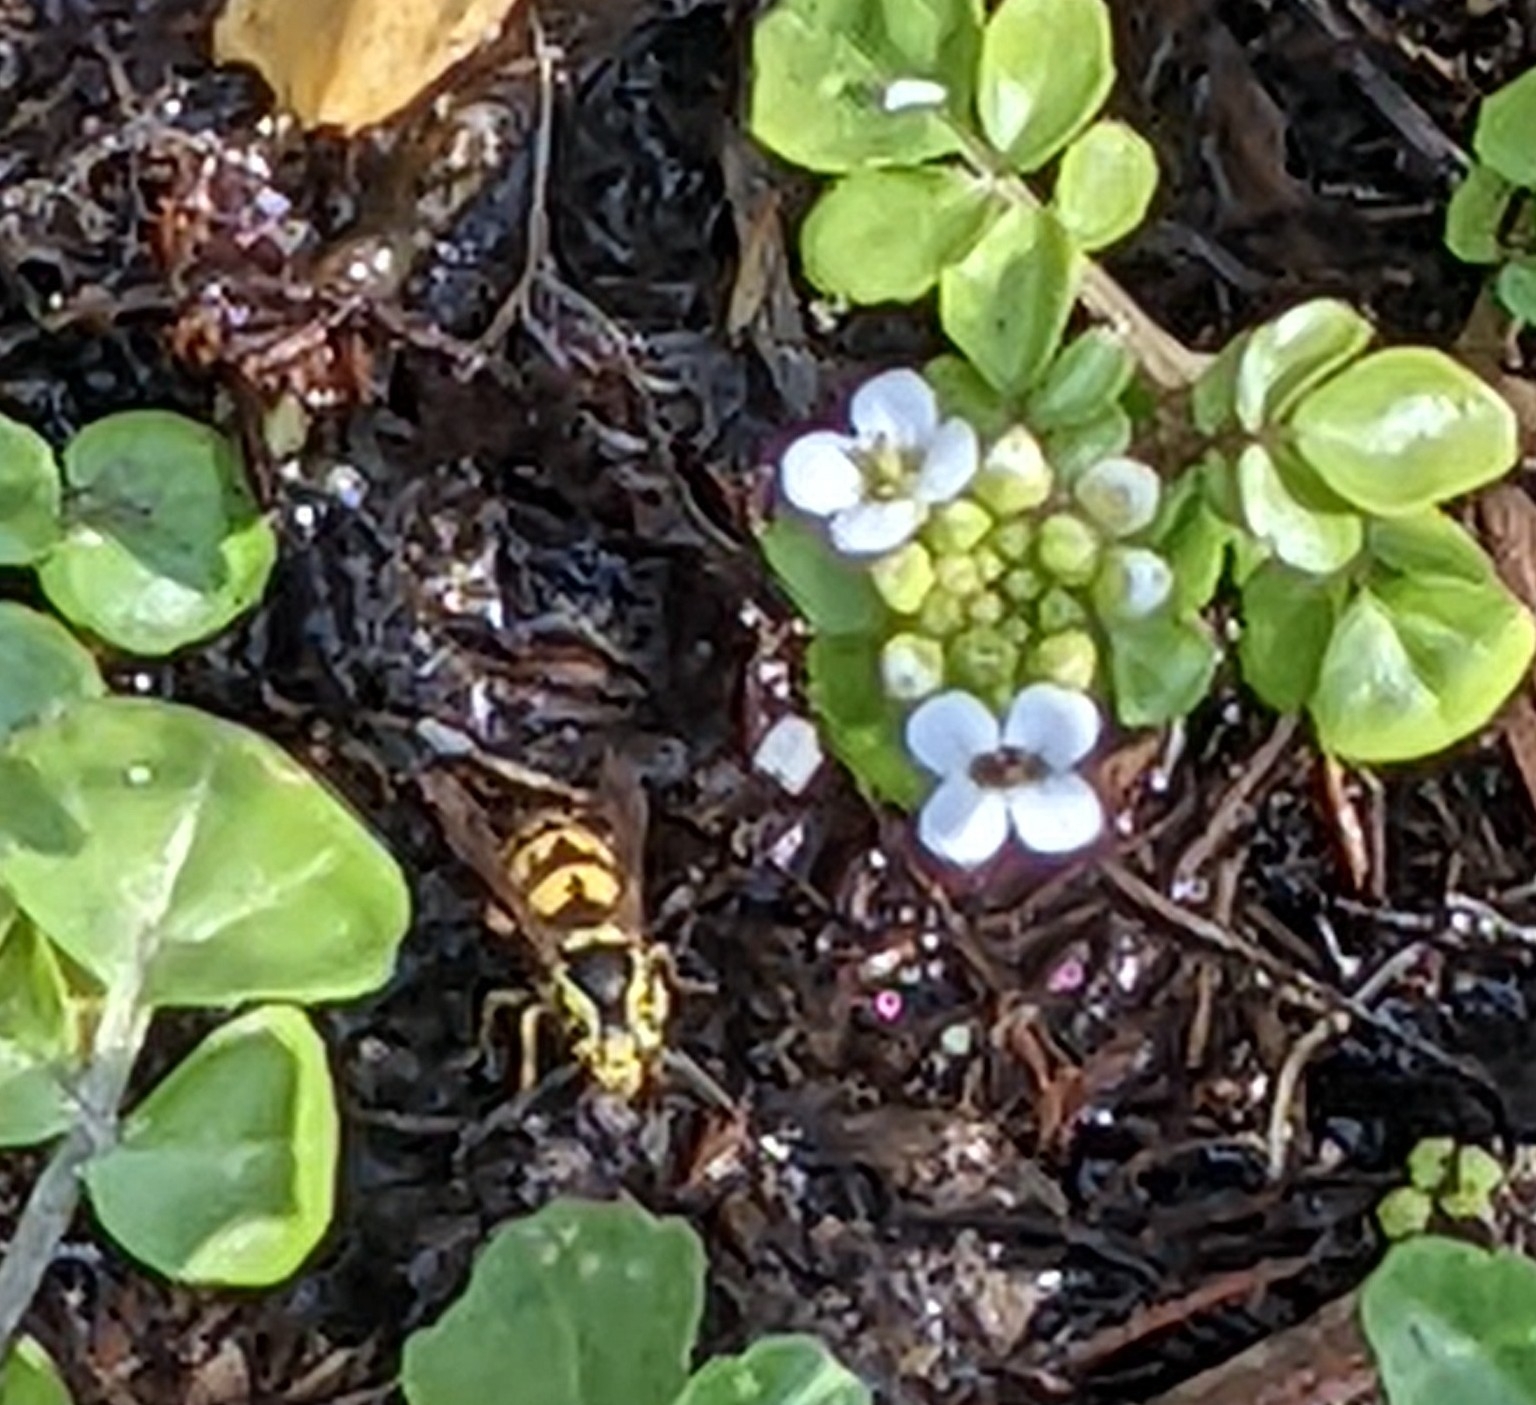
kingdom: Animalia
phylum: Arthropoda
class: Insecta
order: Hymenoptera
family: Vespidae
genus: Vespula
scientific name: Vespula pensylvanica
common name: Western yellowjacket
